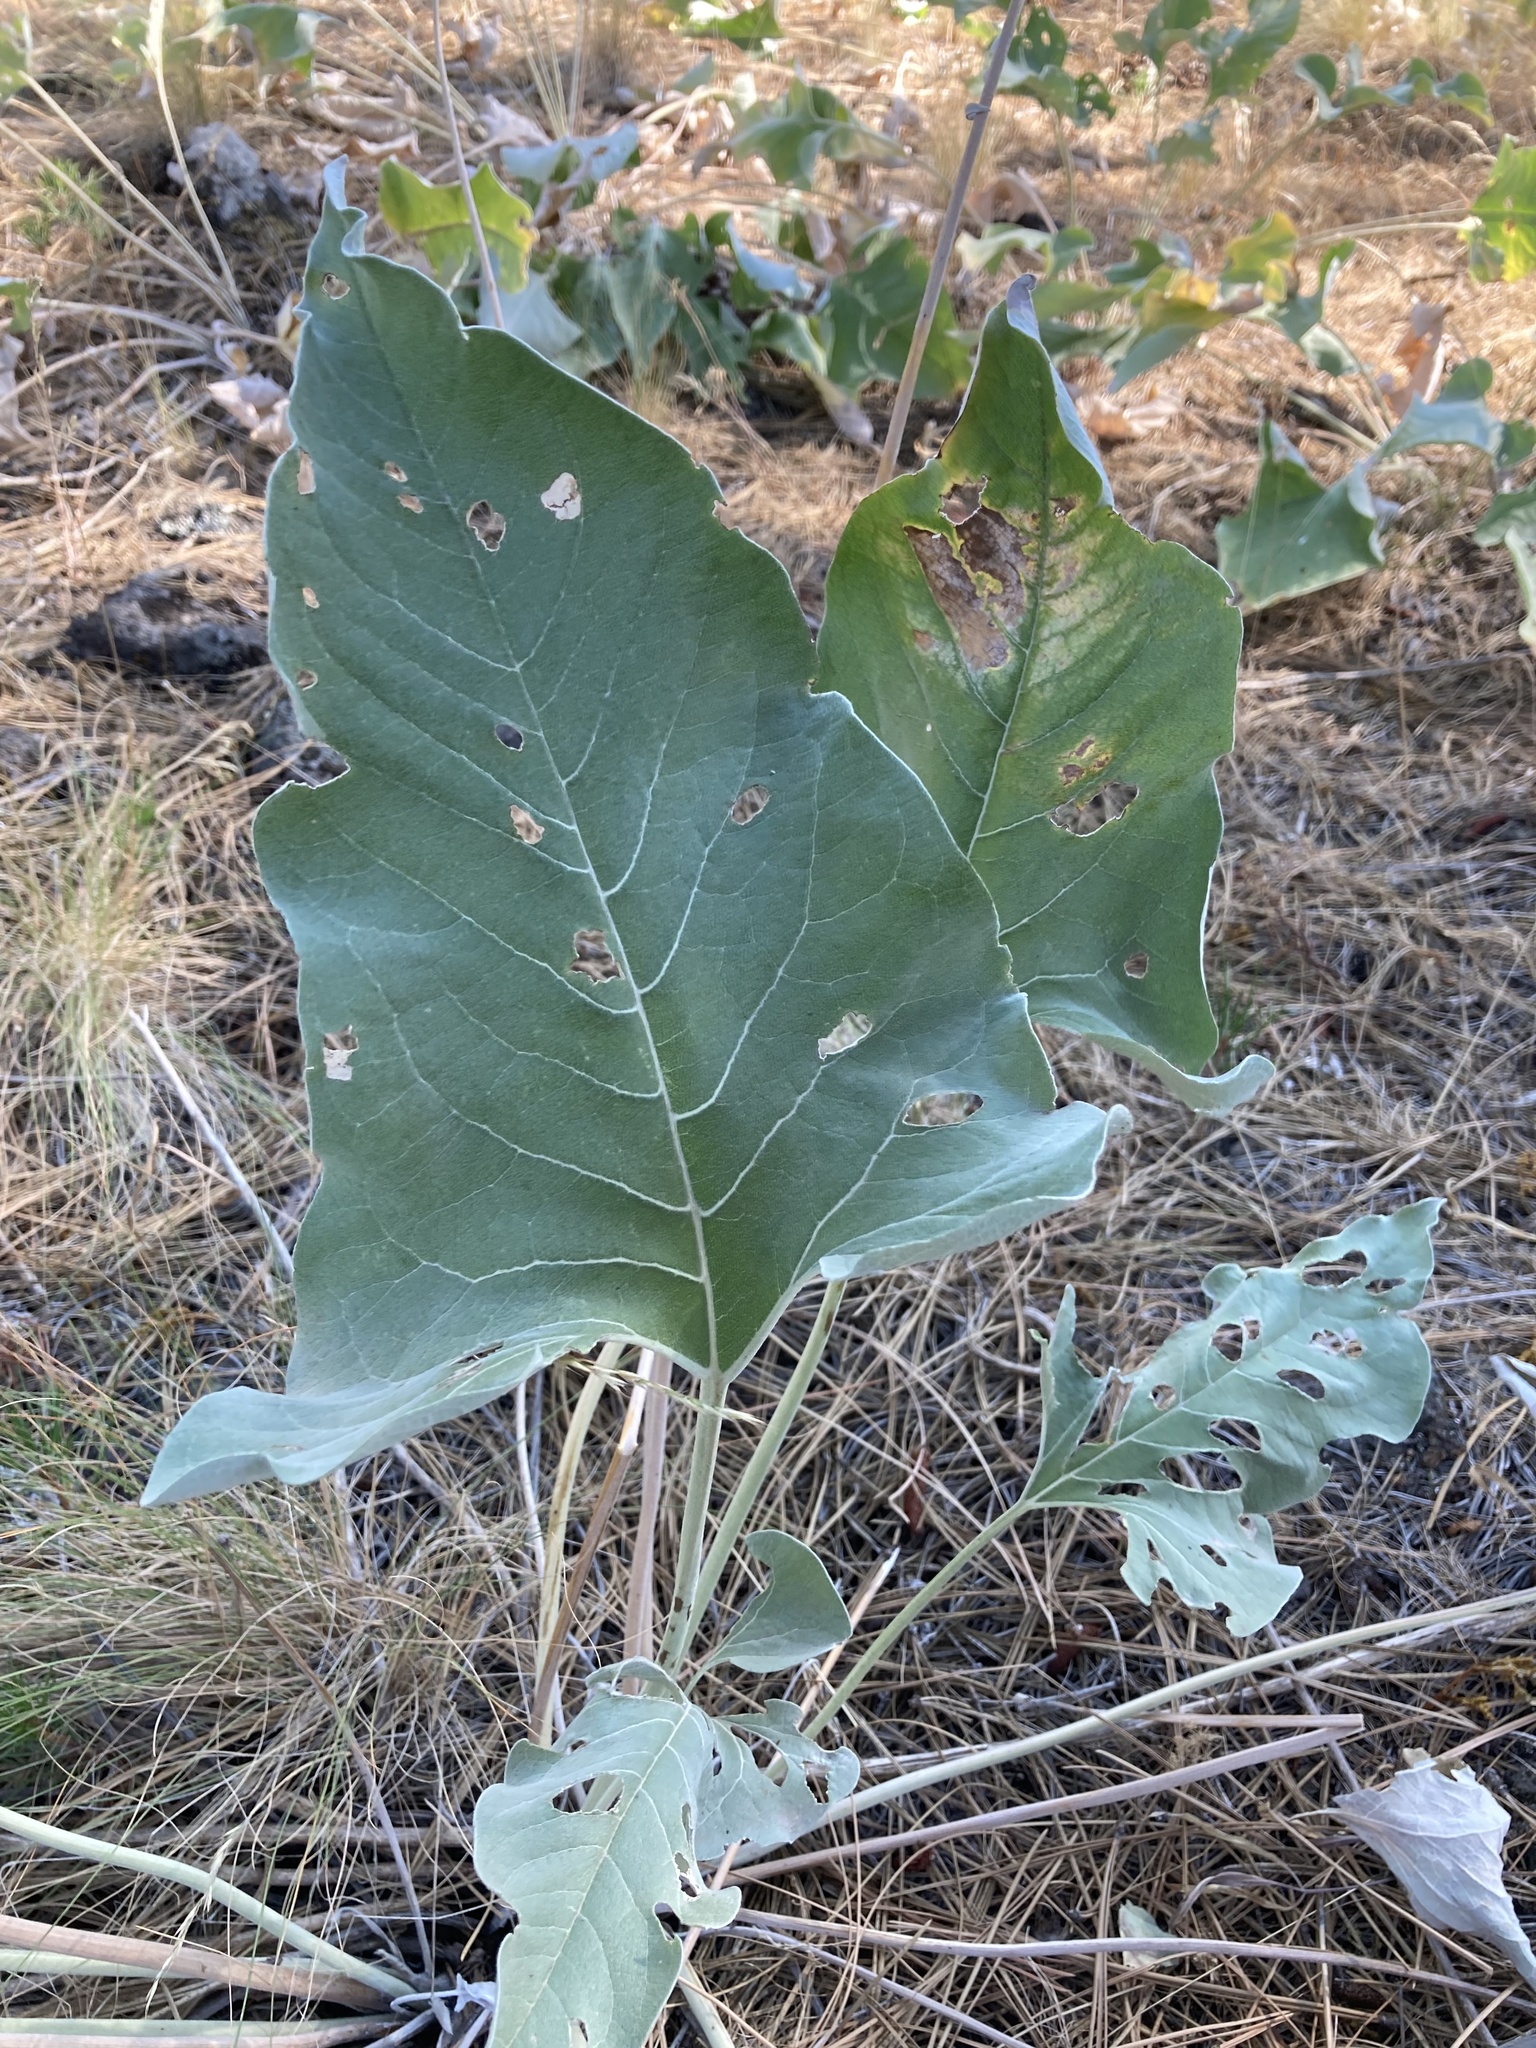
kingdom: Plantae
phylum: Tracheophyta
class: Magnoliopsida
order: Asterales
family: Asteraceae
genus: Wyethia
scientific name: Wyethia sagittata
